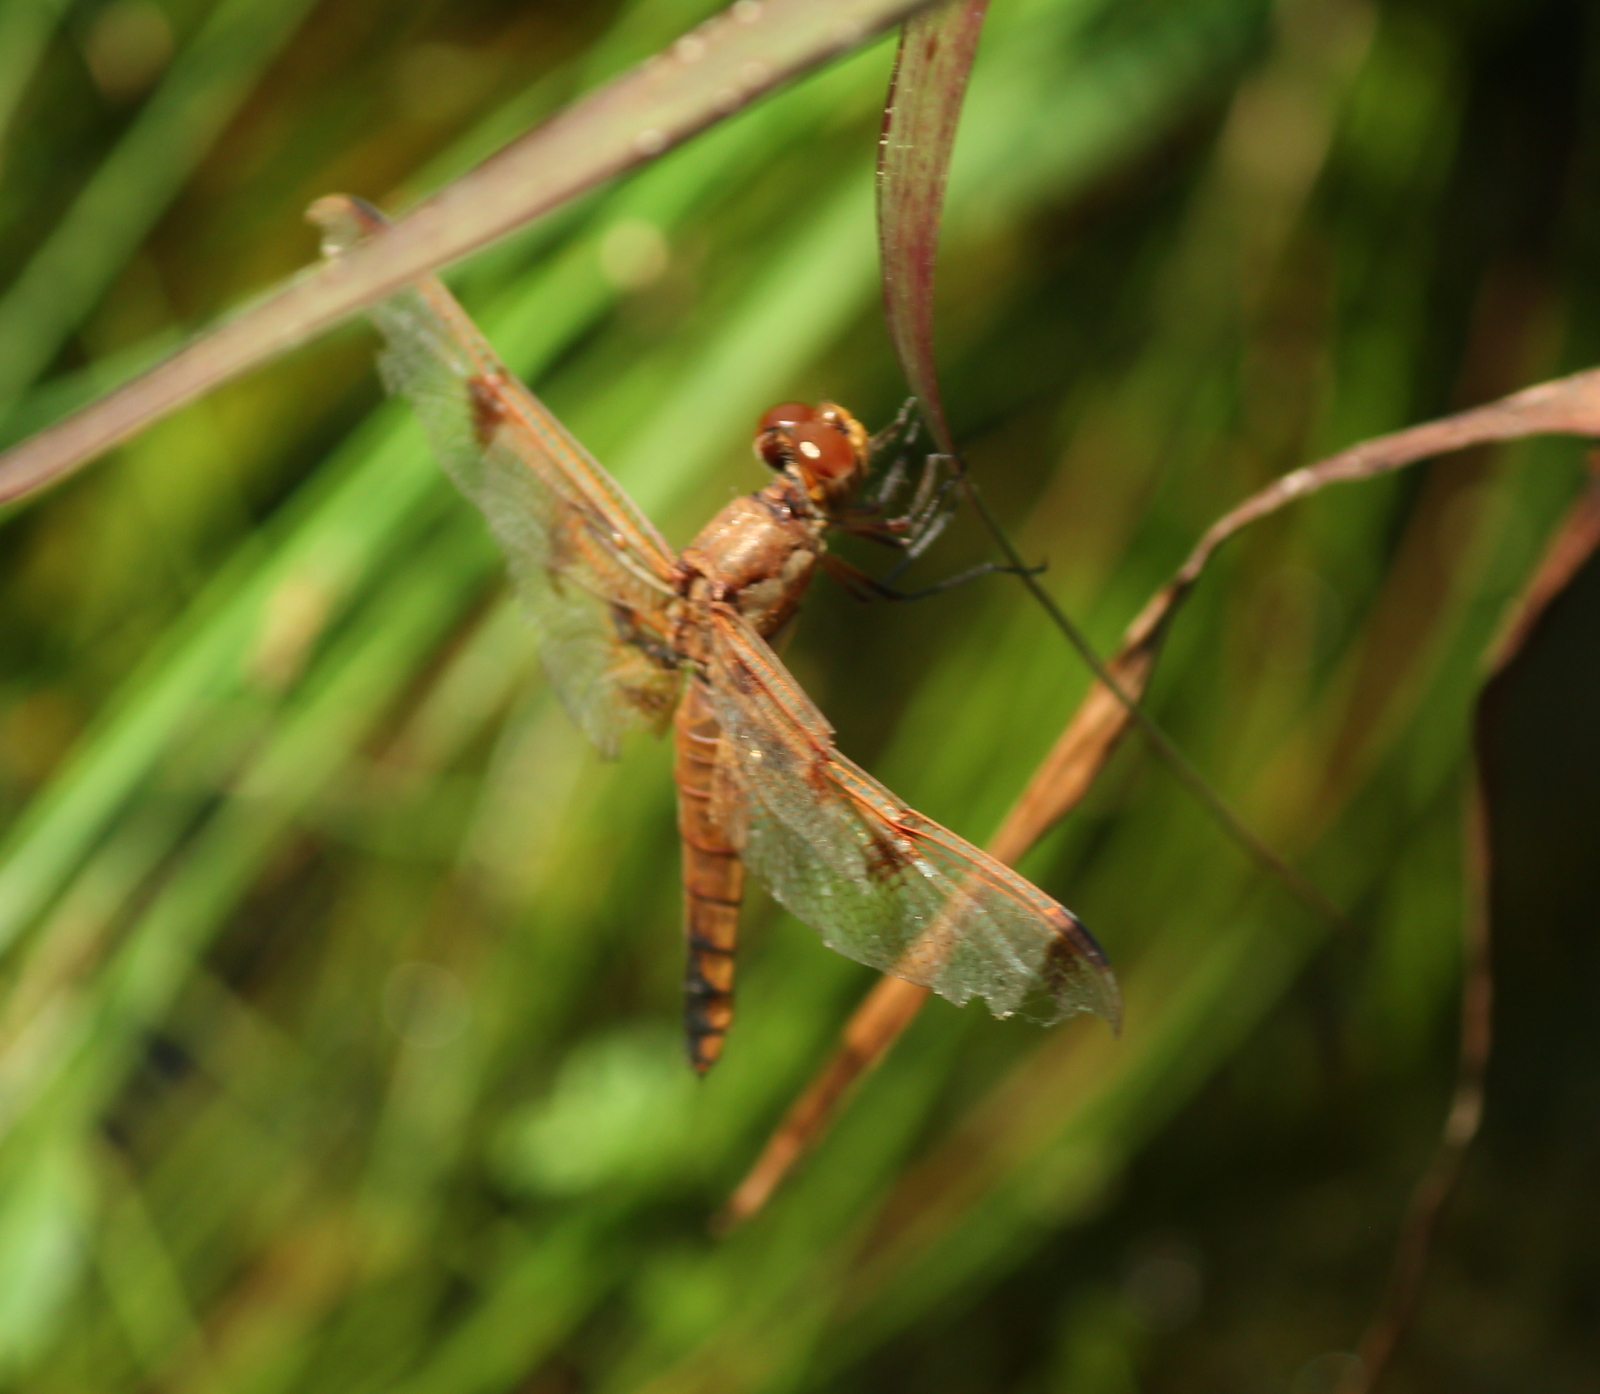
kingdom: Animalia
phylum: Arthropoda
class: Insecta
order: Odonata
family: Libellulidae
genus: Libellula
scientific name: Libellula semifasciata
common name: Painted skimmer
